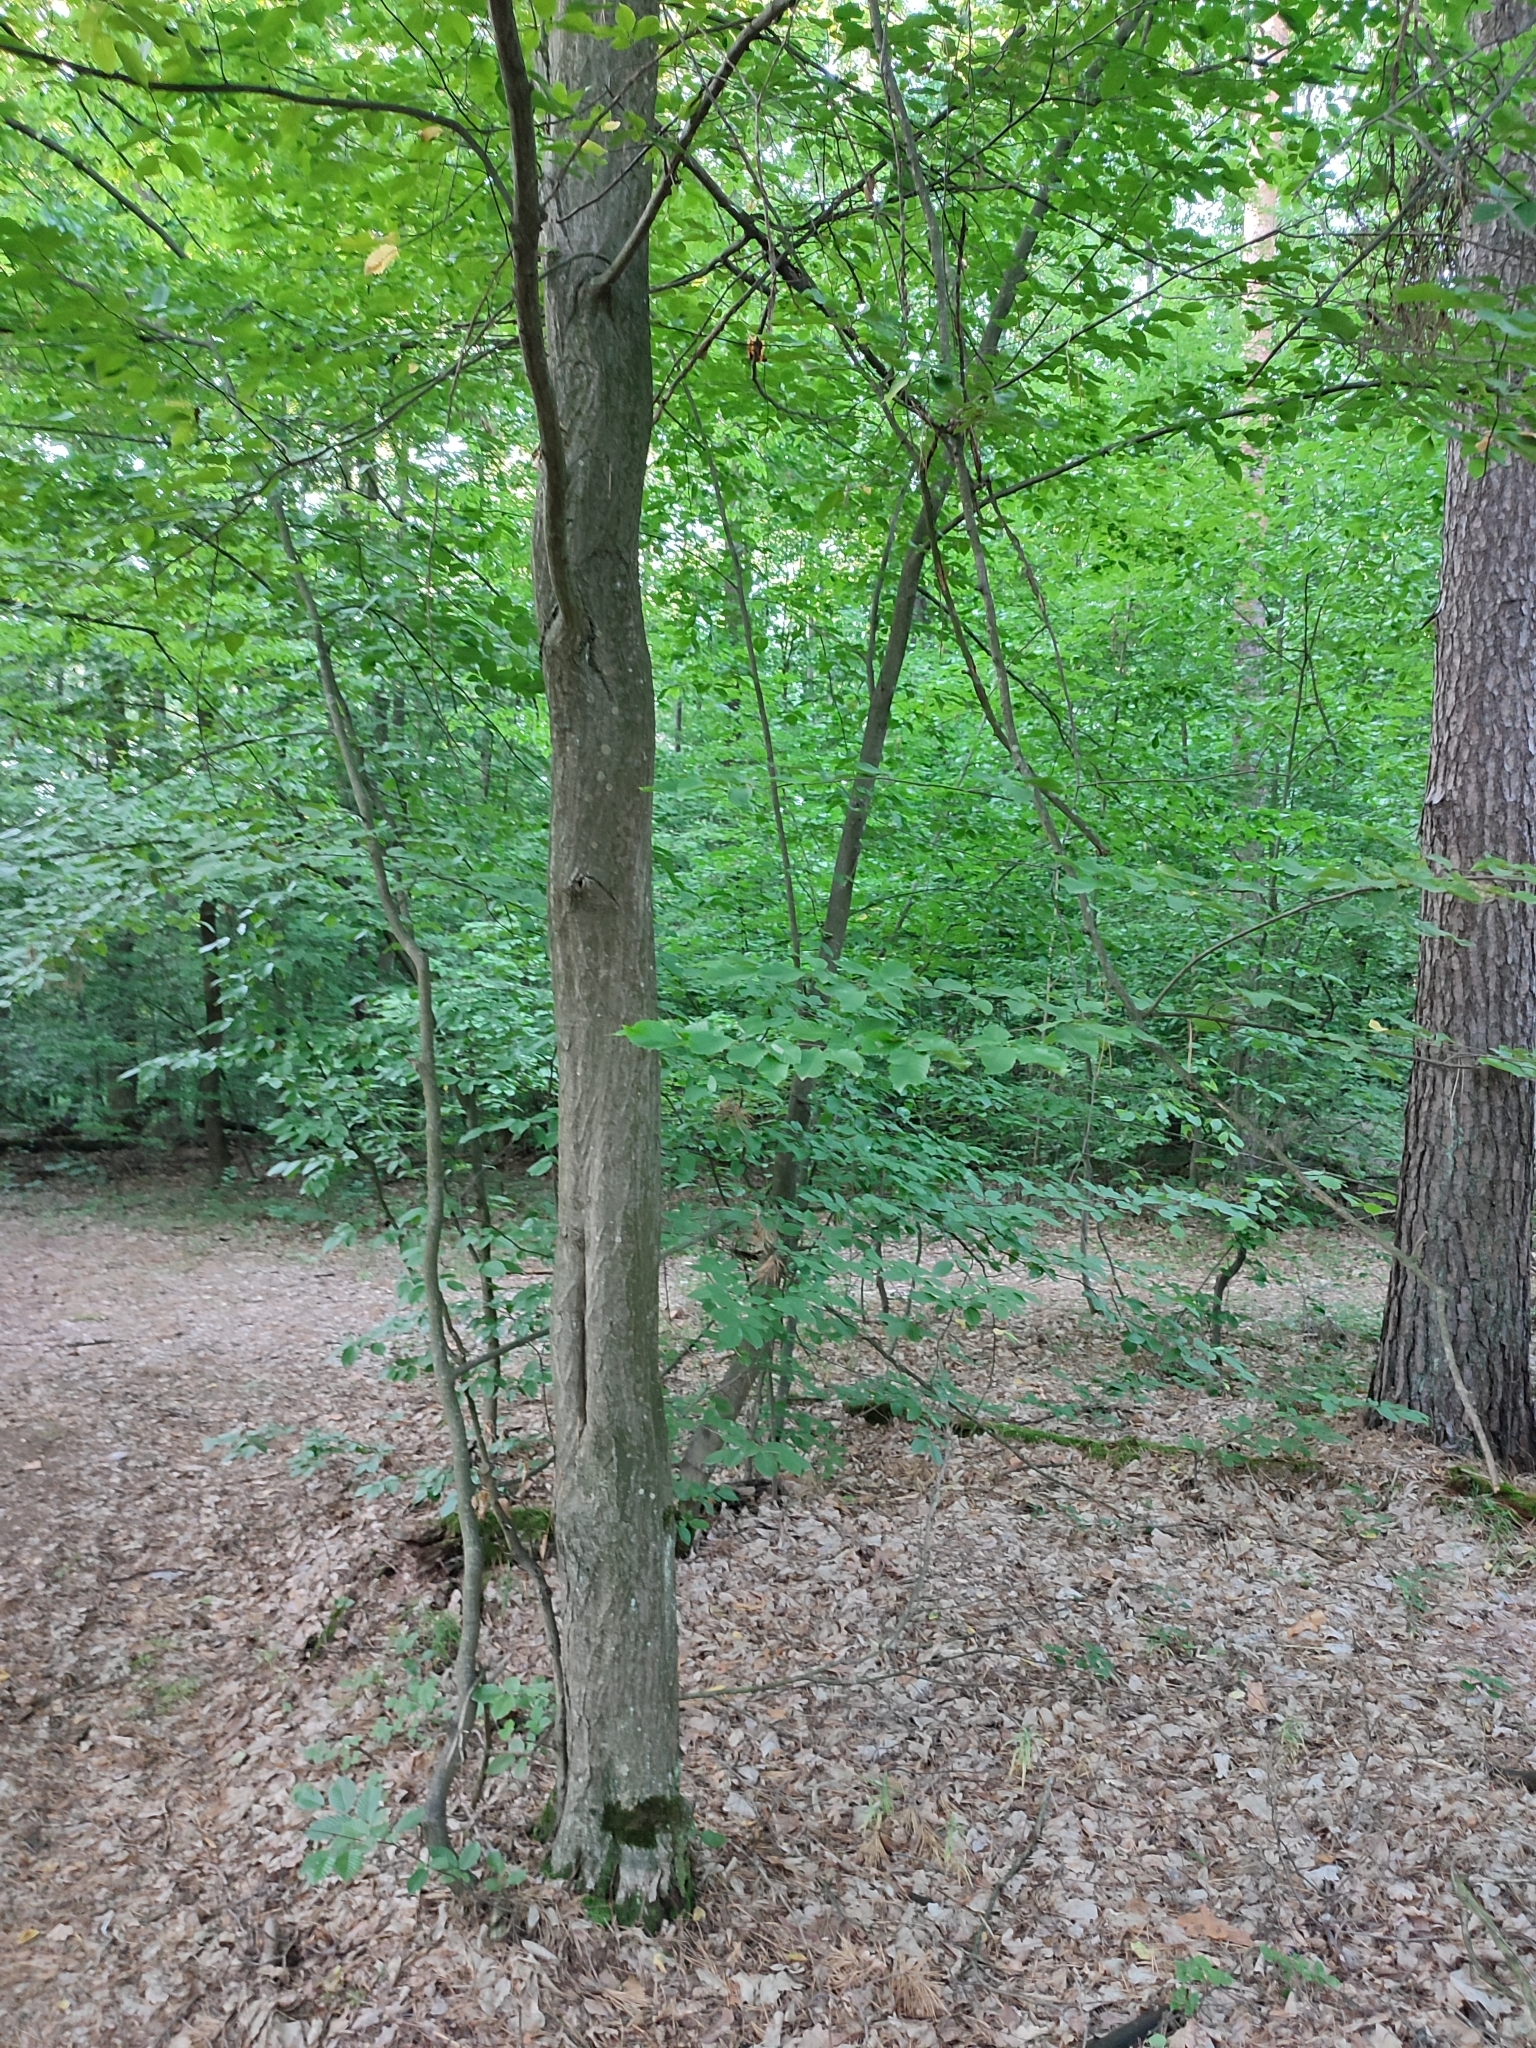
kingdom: Plantae
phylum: Tracheophyta
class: Magnoliopsida
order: Fagales
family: Betulaceae
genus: Carpinus
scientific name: Carpinus betulus
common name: Hornbeam
